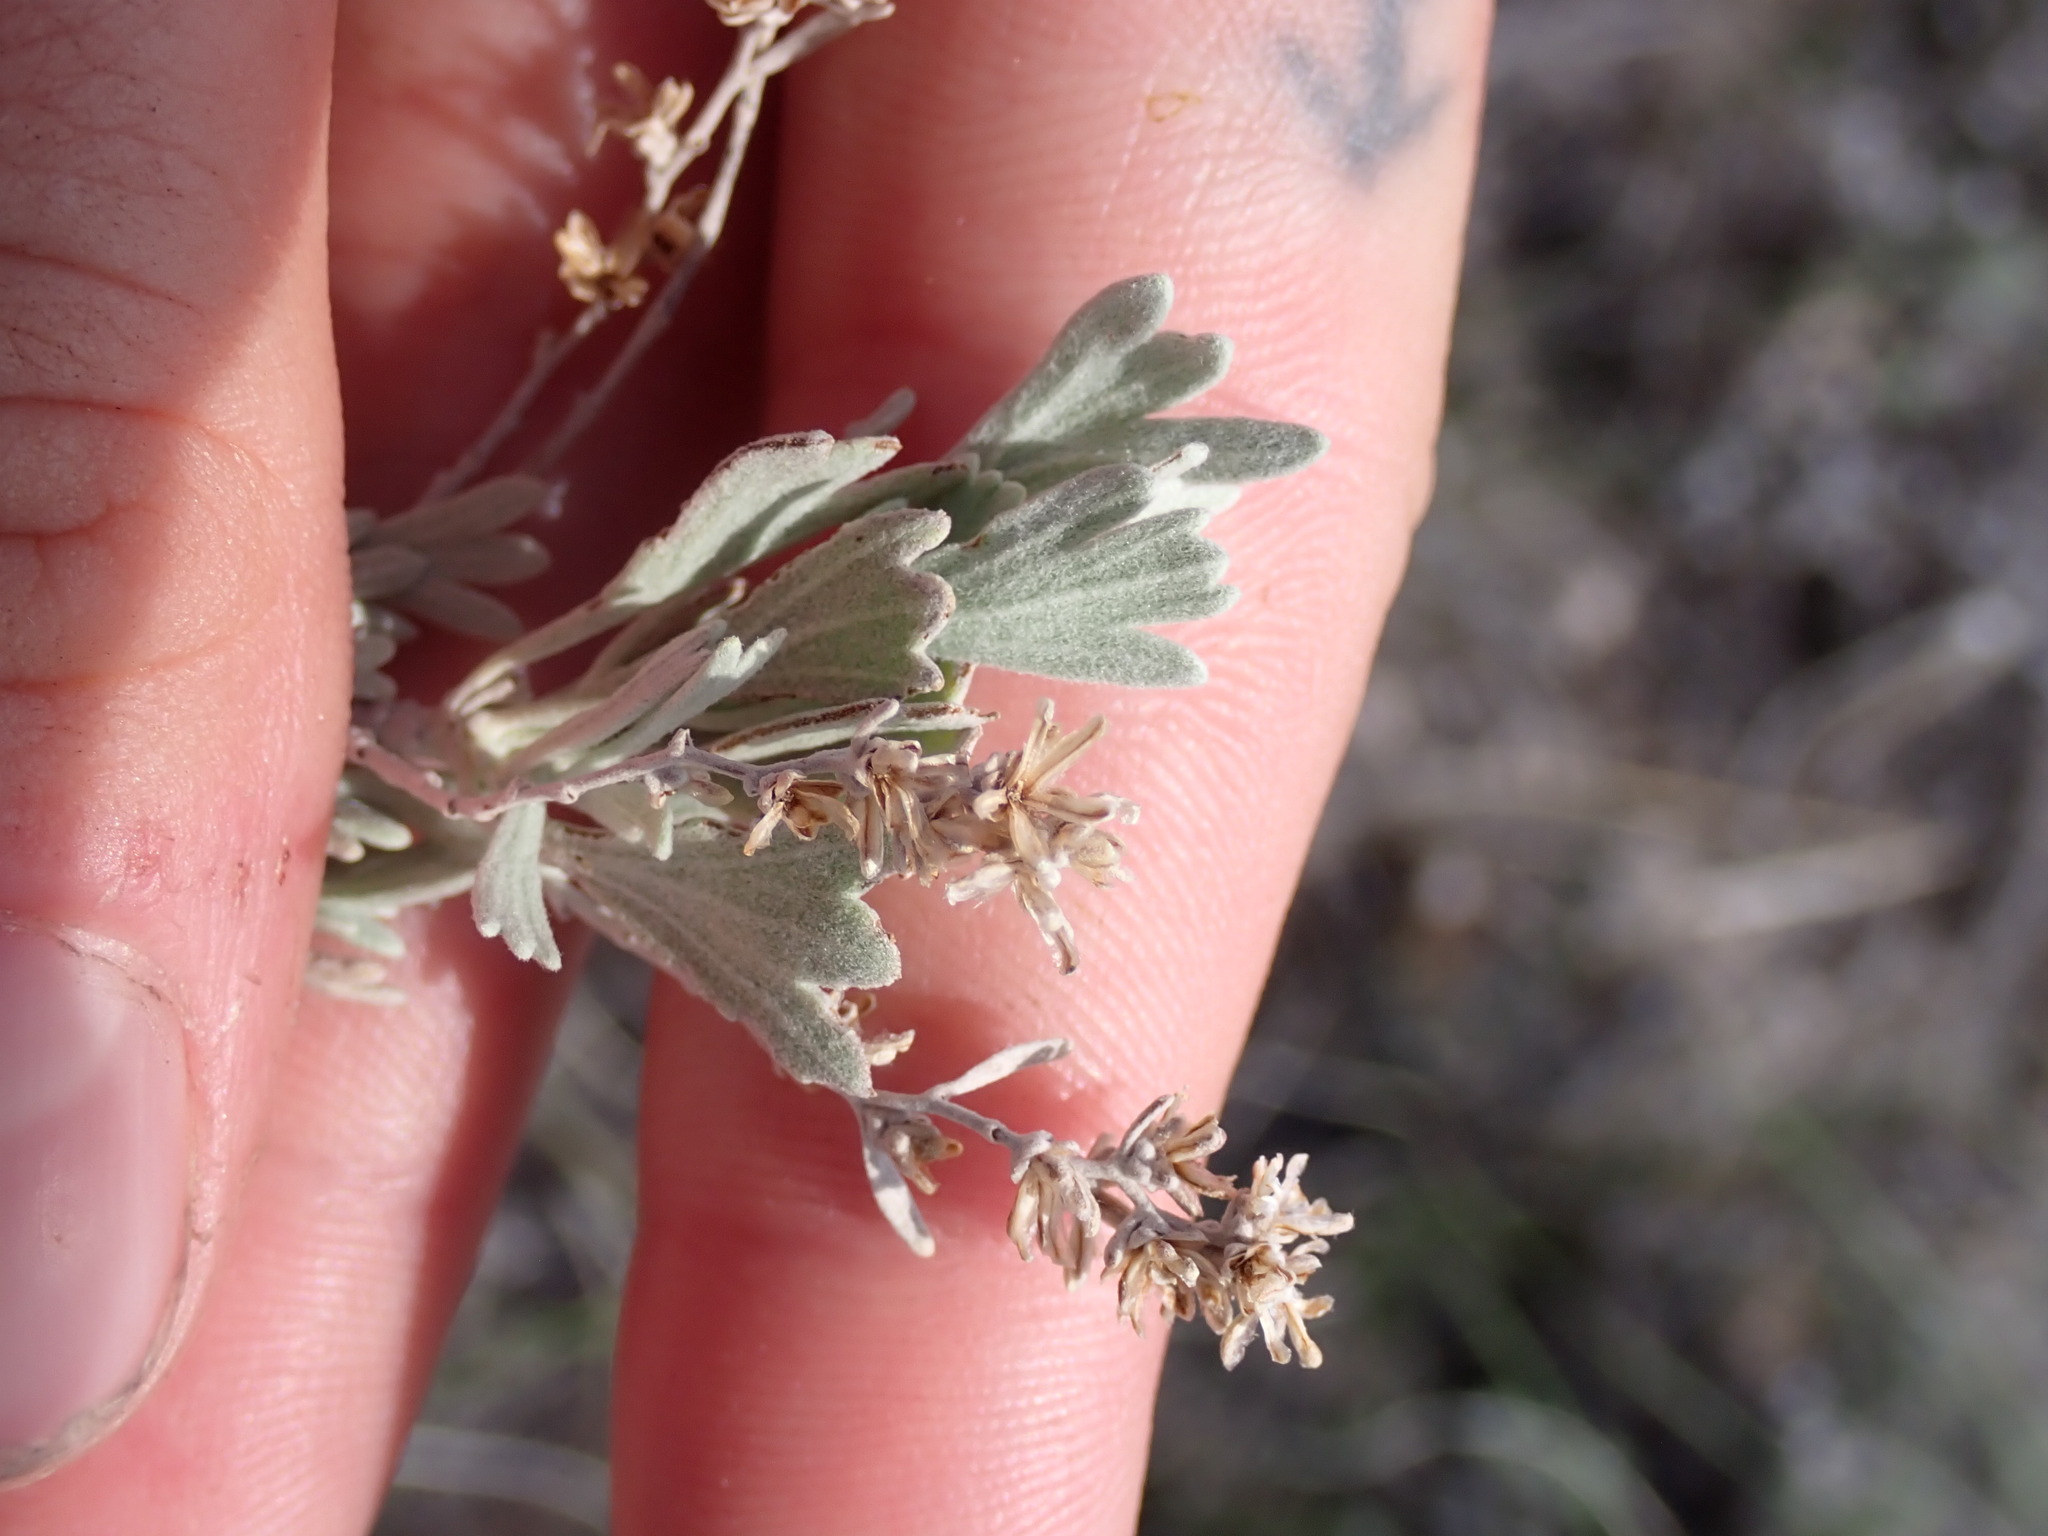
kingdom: Plantae
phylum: Tracheophyta
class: Magnoliopsida
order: Asterales
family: Asteraceae
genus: Artemisia
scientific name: Artemisia tridentata
